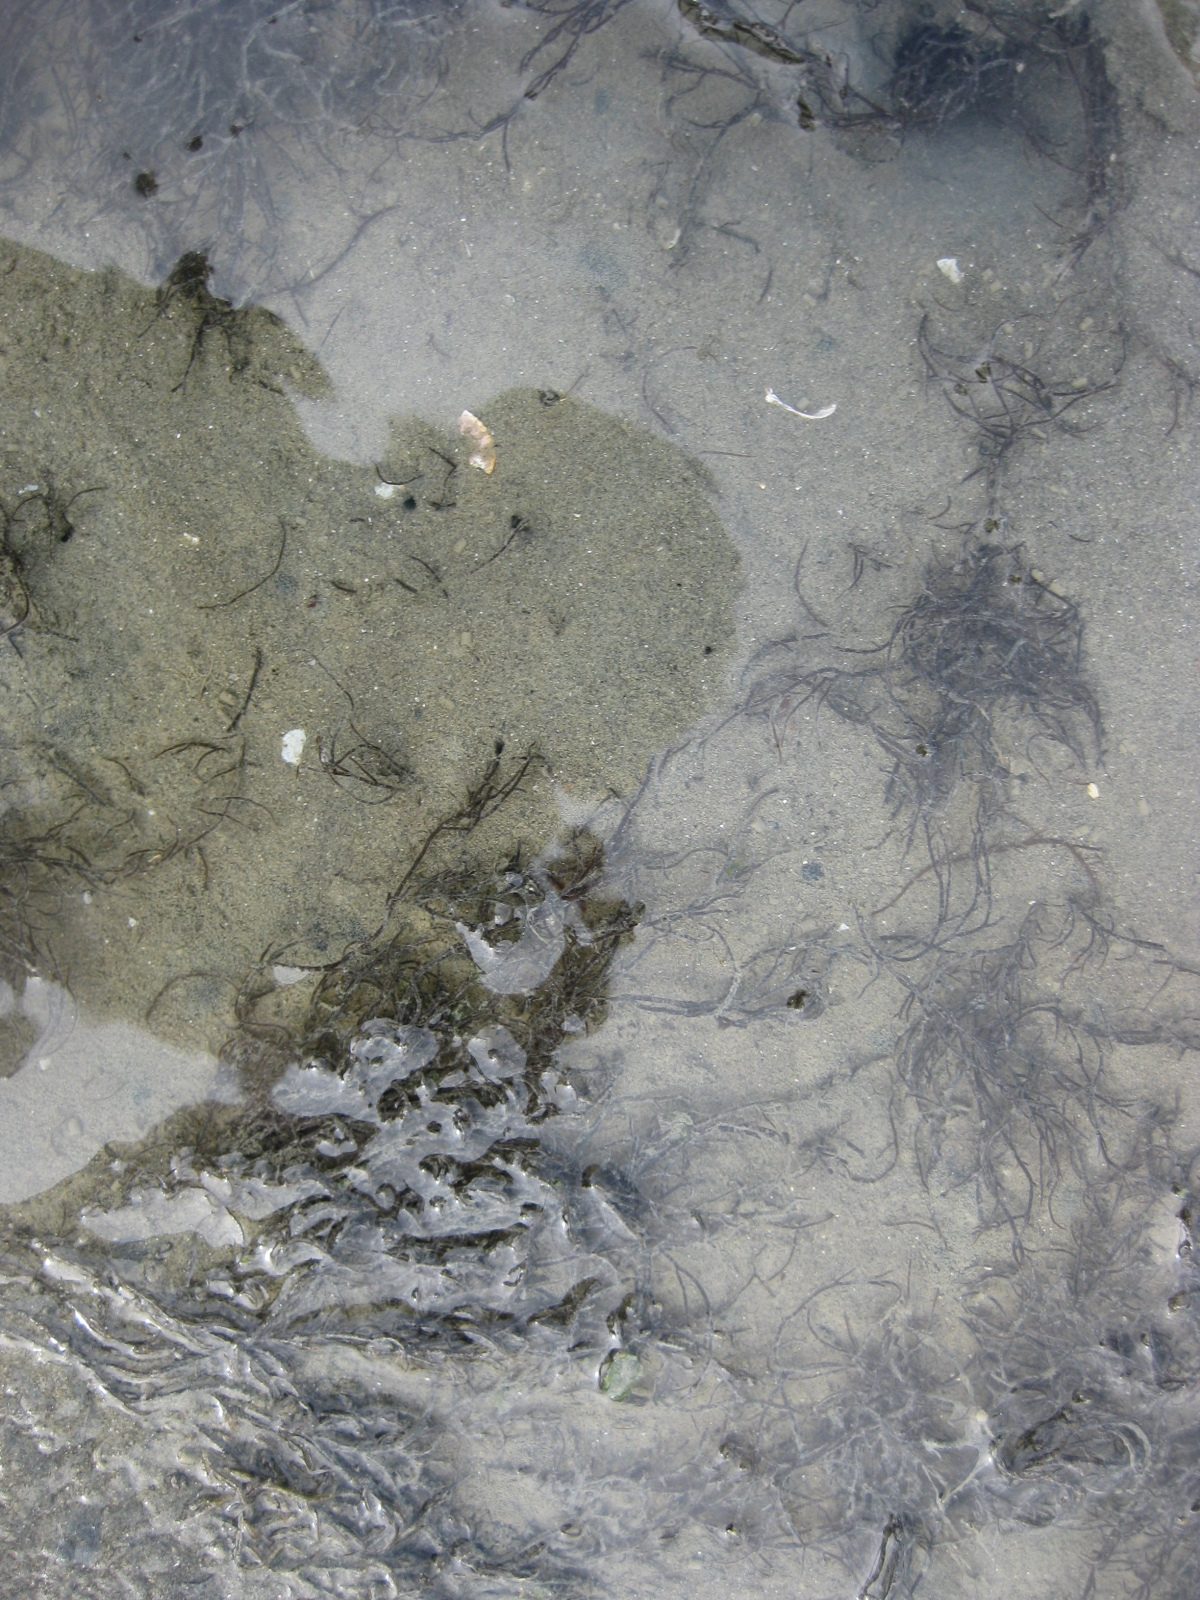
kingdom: Plantae
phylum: Rhodophyta
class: Florideophyceae
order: Gracilariales
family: Gracilariaceae
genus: Gracilaria
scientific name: Gracilaria chilensis
